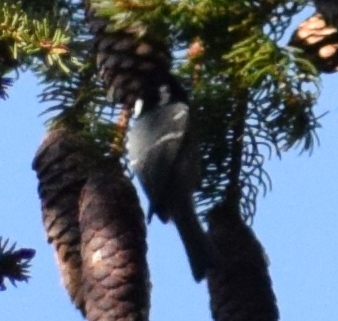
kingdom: Animalia
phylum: Chordata
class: Aves
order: Passeriformes
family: Paridae
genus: Periparus
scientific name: Periparus ater
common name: Coal tit
